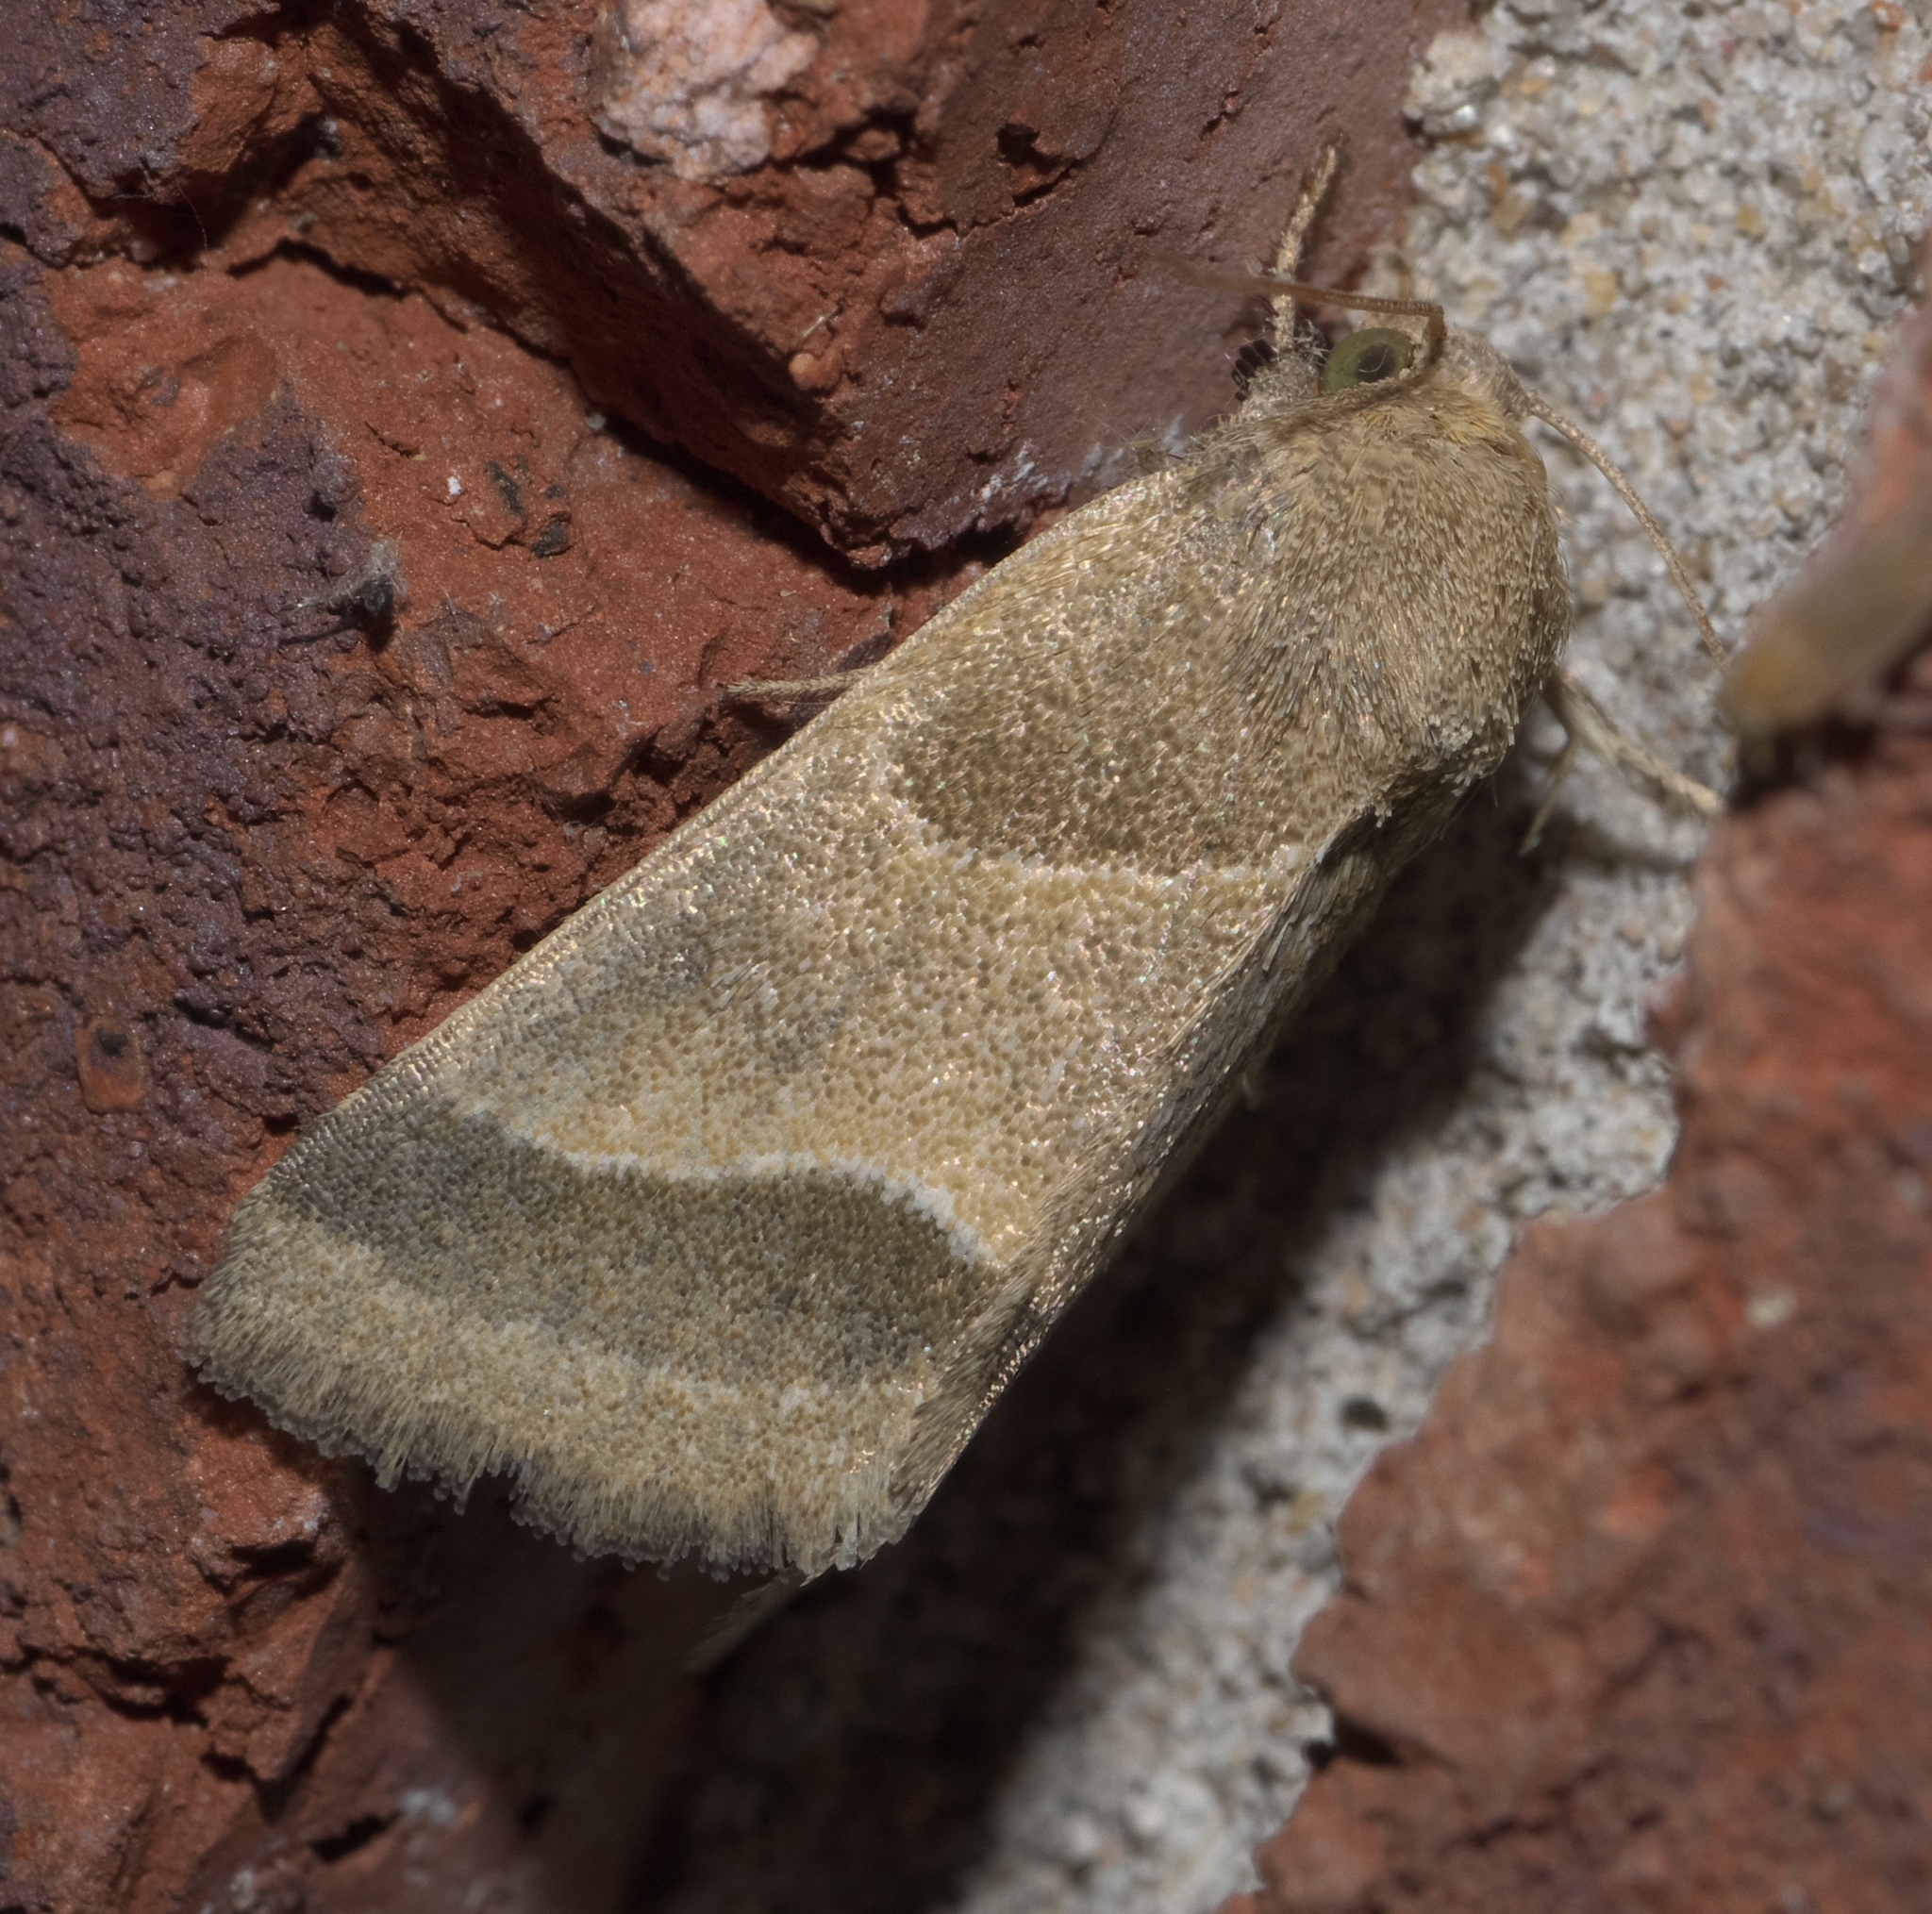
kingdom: Animalia
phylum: Arthropoda
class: Insecta
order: Lepidoptera
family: Noctuidae
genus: Schinia
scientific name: Schinia gracilenta
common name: Slender flower moth
